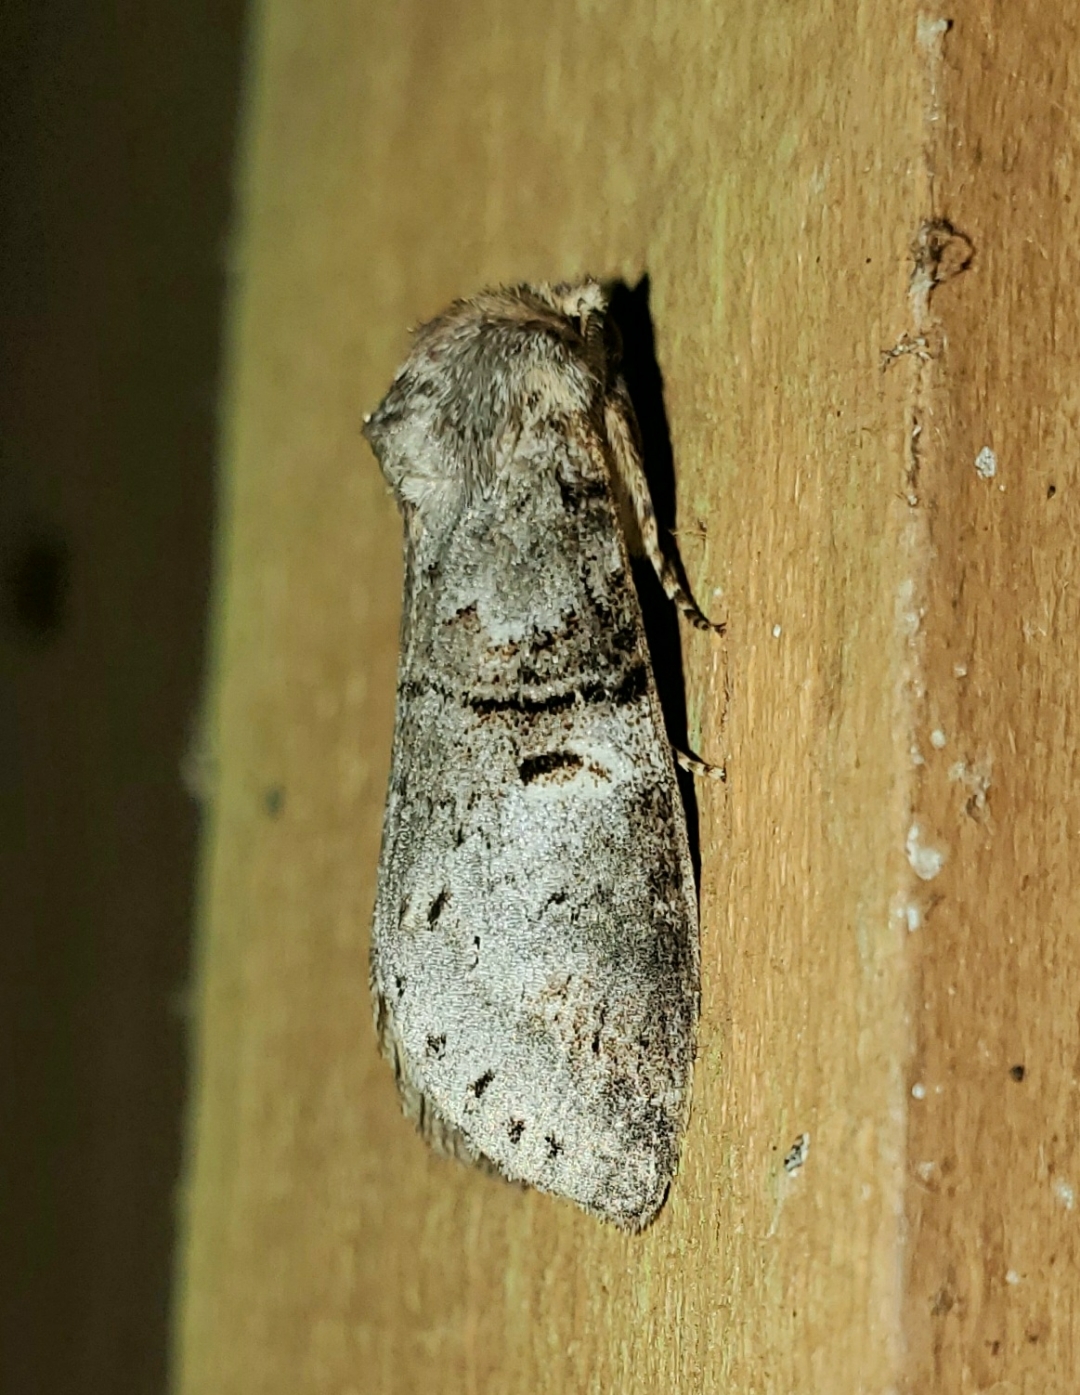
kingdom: Animalia
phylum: Arthropoda
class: Insecta
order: Lepidoptera
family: Notodontidae
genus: Ellida
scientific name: Ellida caniplaga
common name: Linden prominent
